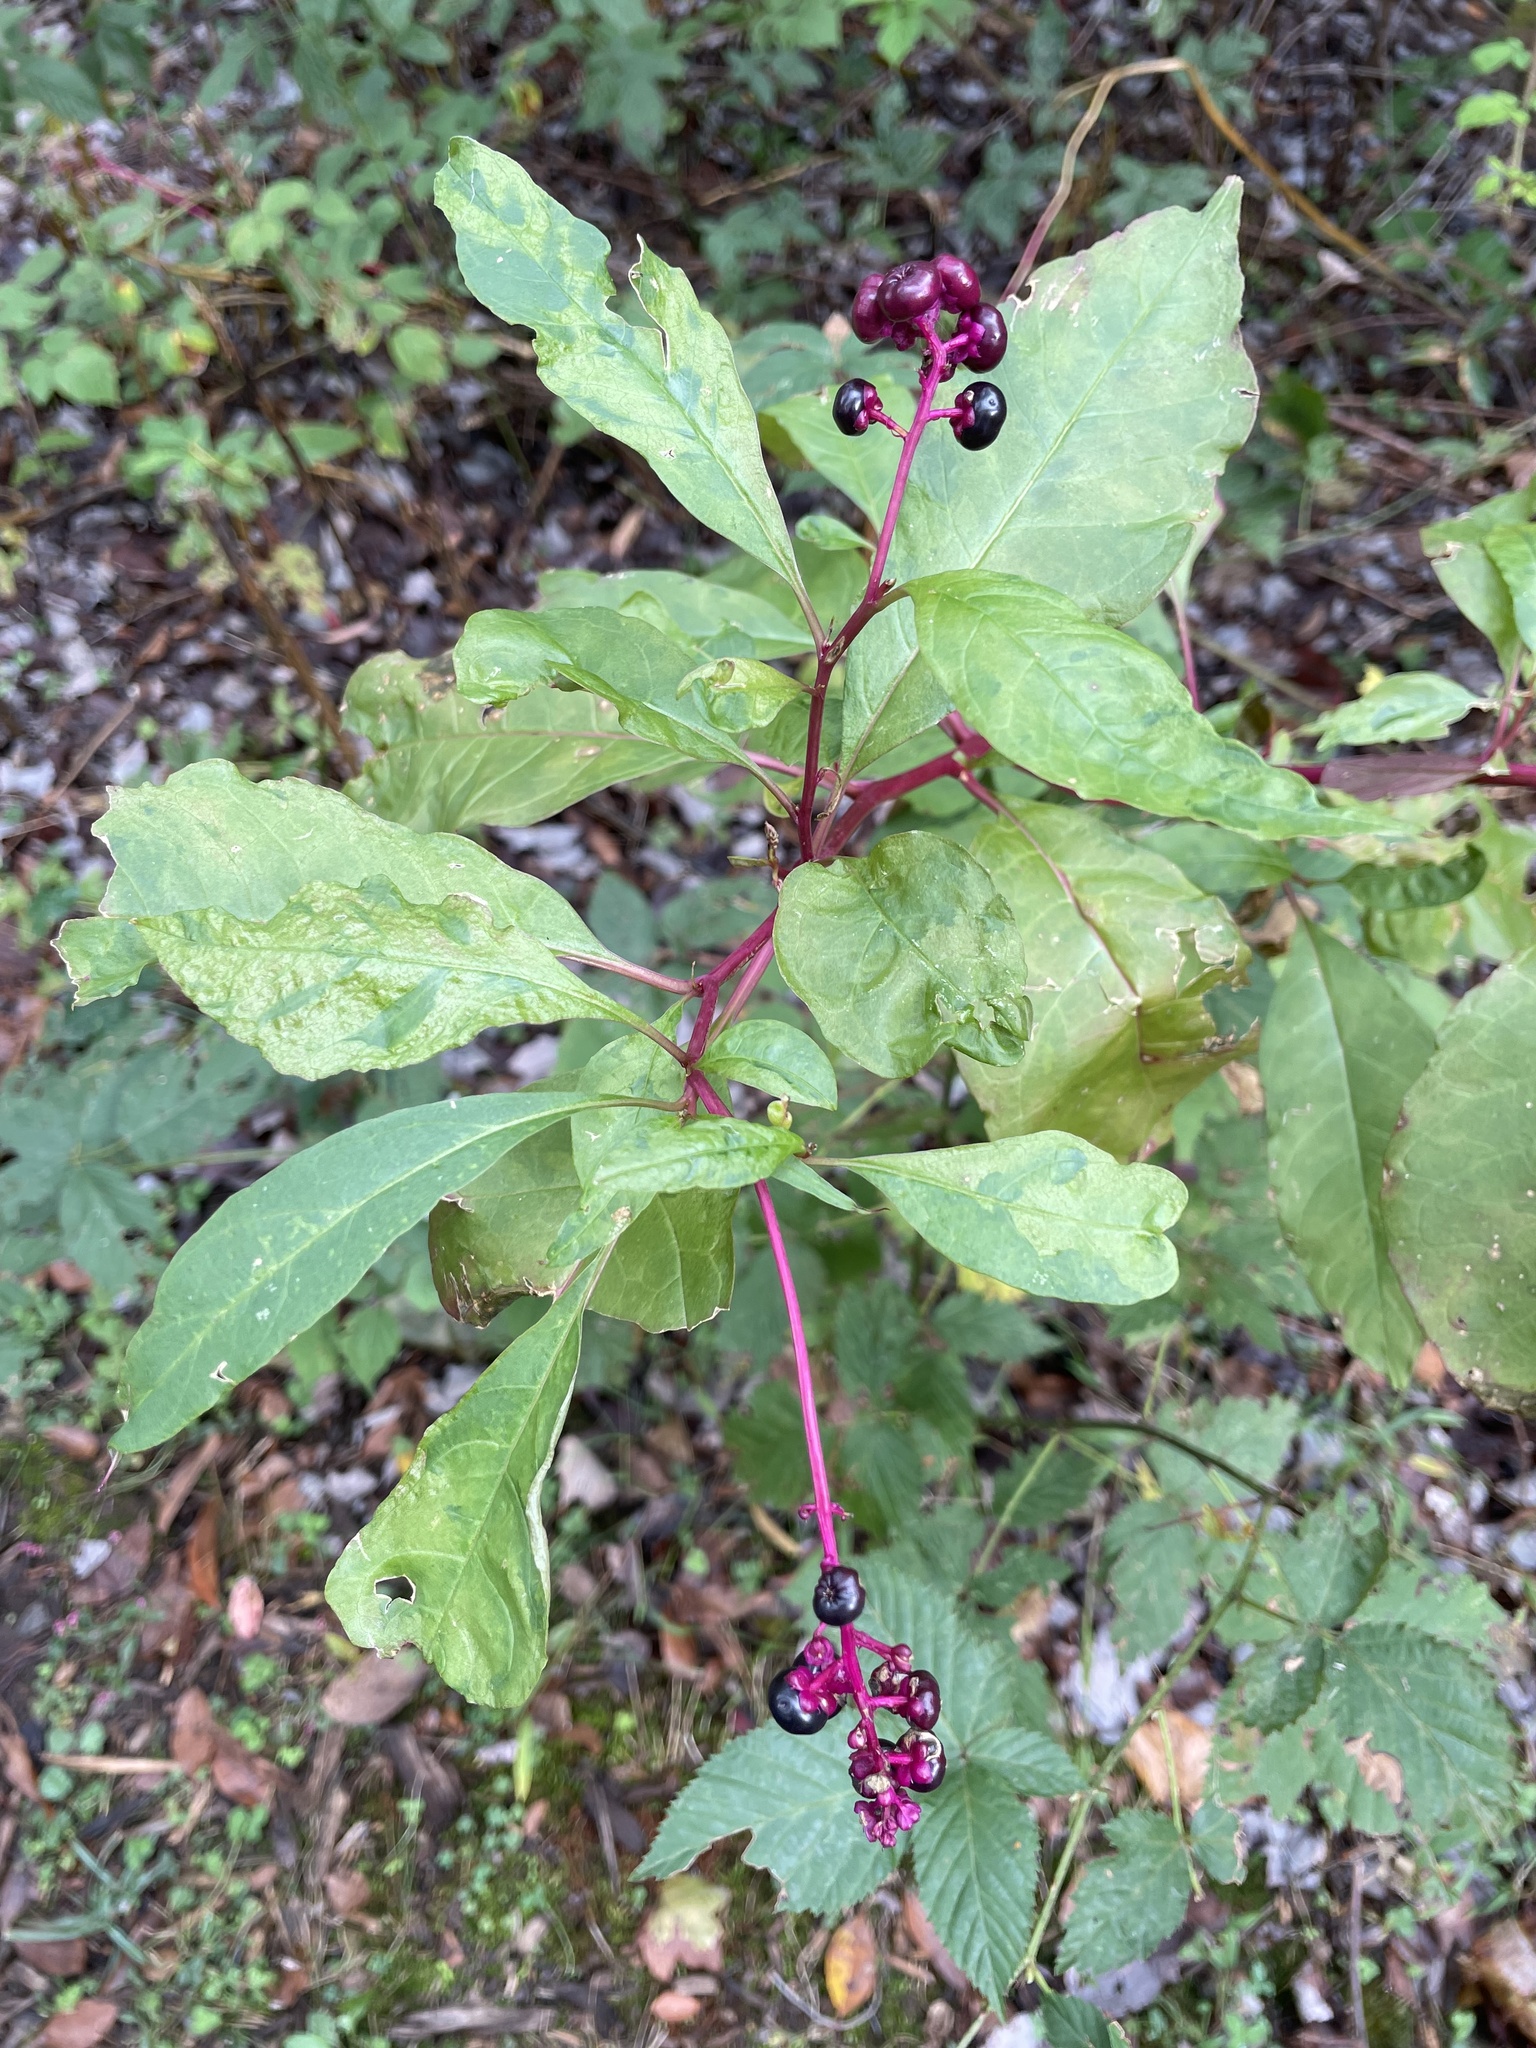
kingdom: Plantae
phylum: Tracheophyta
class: Magnoliopsida
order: Caryophyllales
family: Phytolaccaceae
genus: Phytolacca
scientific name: Phytolacca americana
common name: American pokeweed
